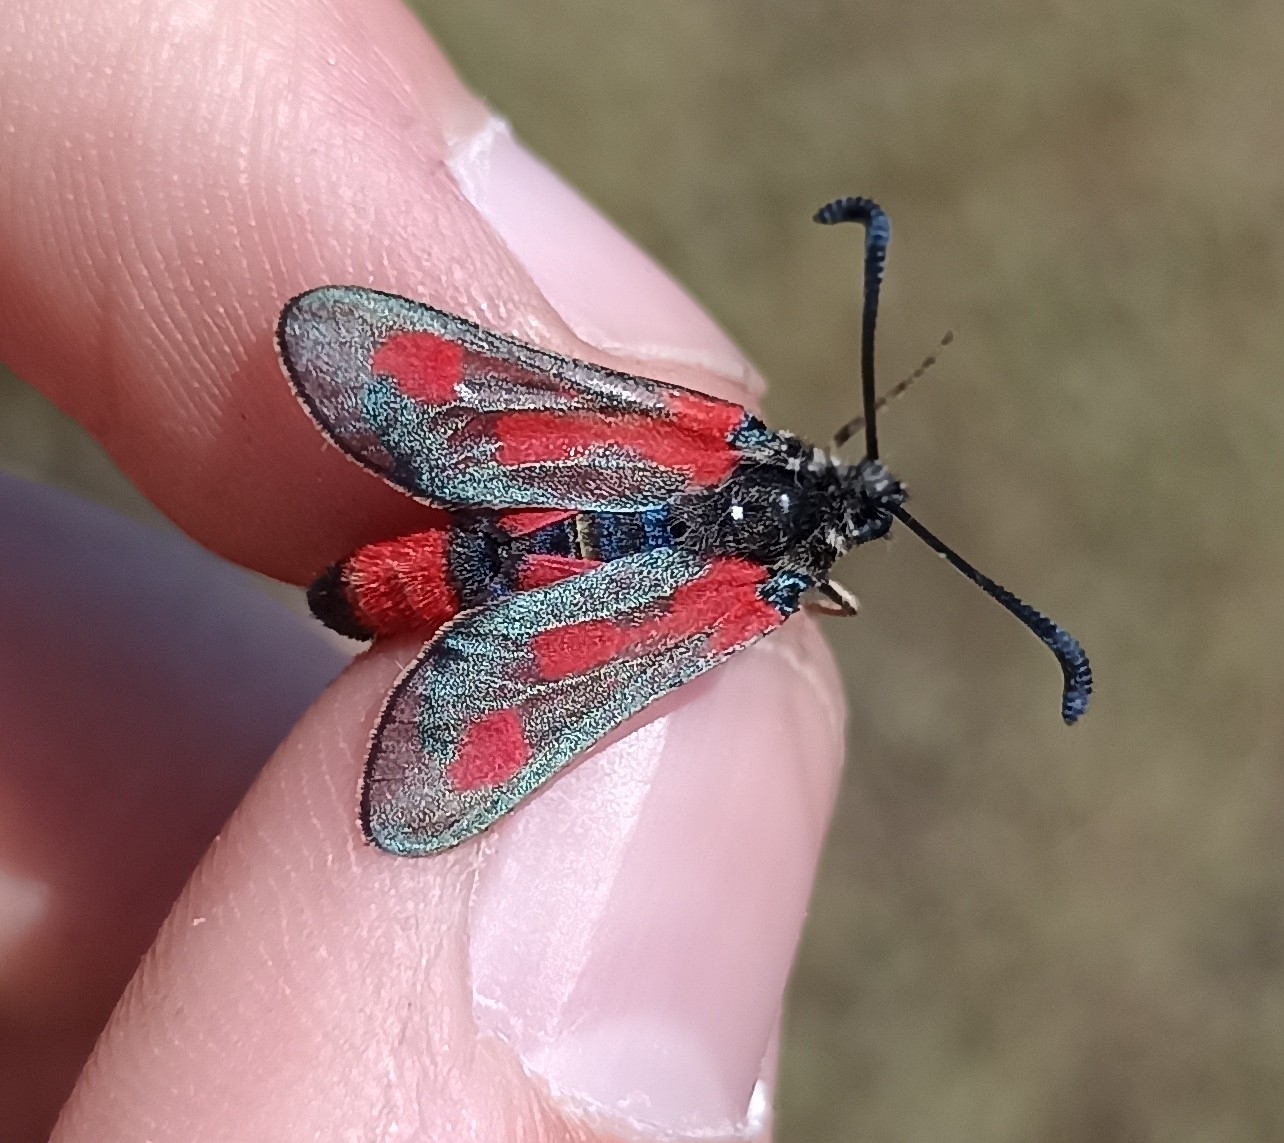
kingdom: Animalia
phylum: Arthropoda
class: Insecta
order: Lepidoptera
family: Zygaenidae
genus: Zygaena
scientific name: Zygaena sarpedon
